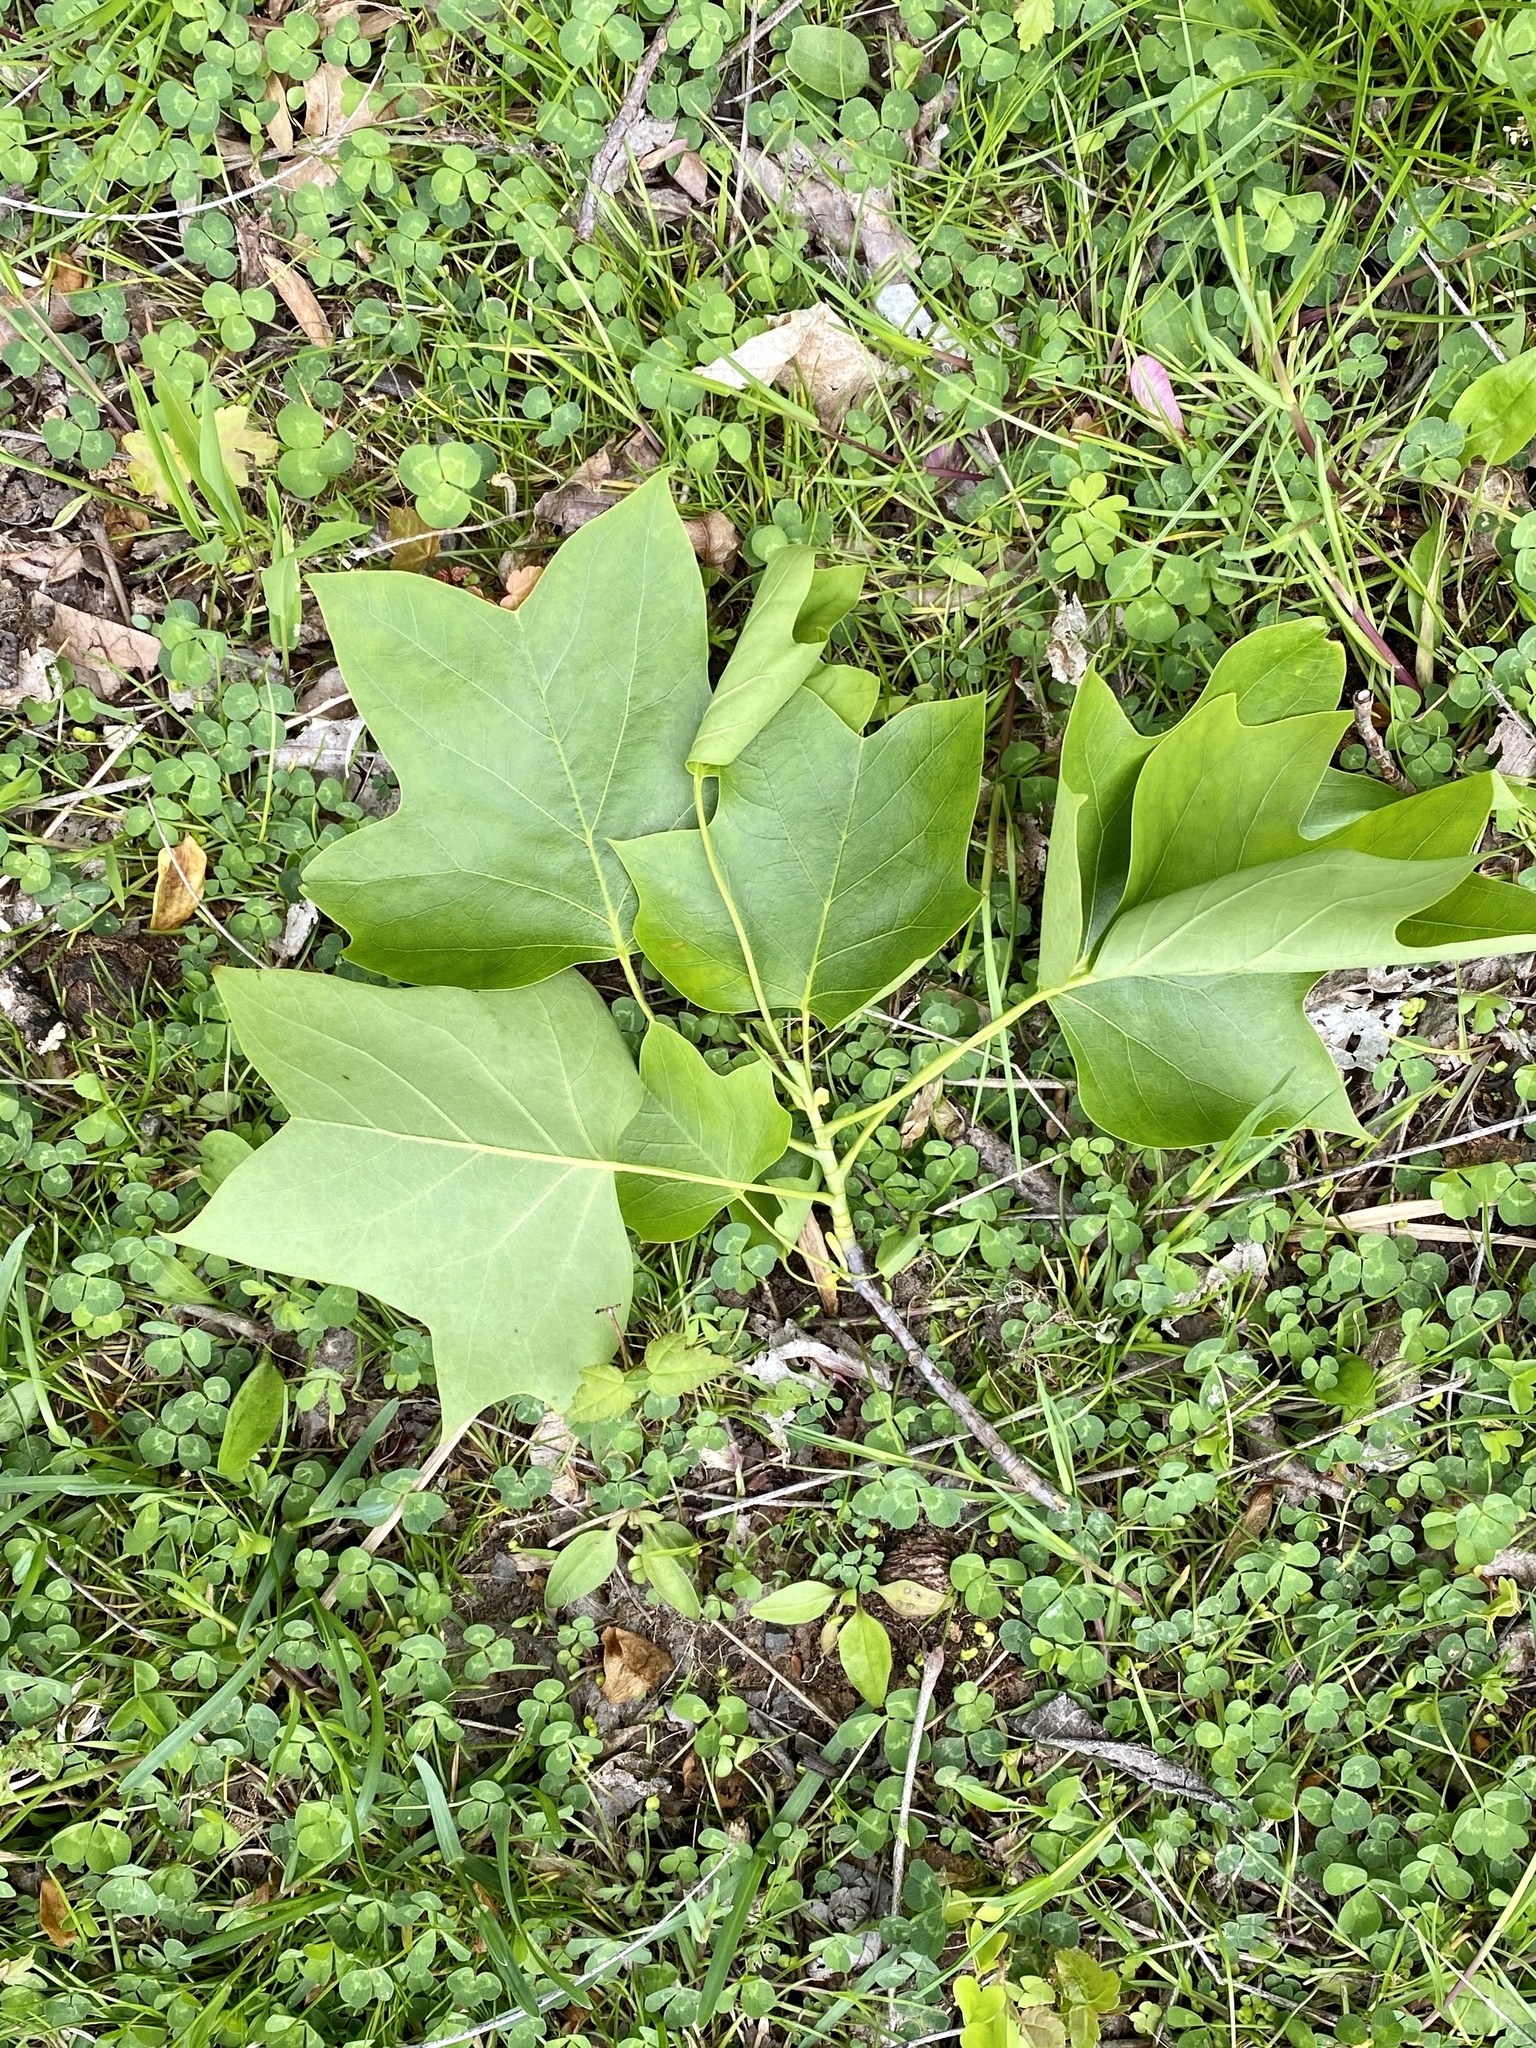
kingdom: Plantae
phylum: Tracheophyta
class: Magnoliopsida
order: Magnoliales
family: Magnoliaceae
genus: Liriodendron
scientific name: Liriodendron tulipifera
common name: Tulip tree
